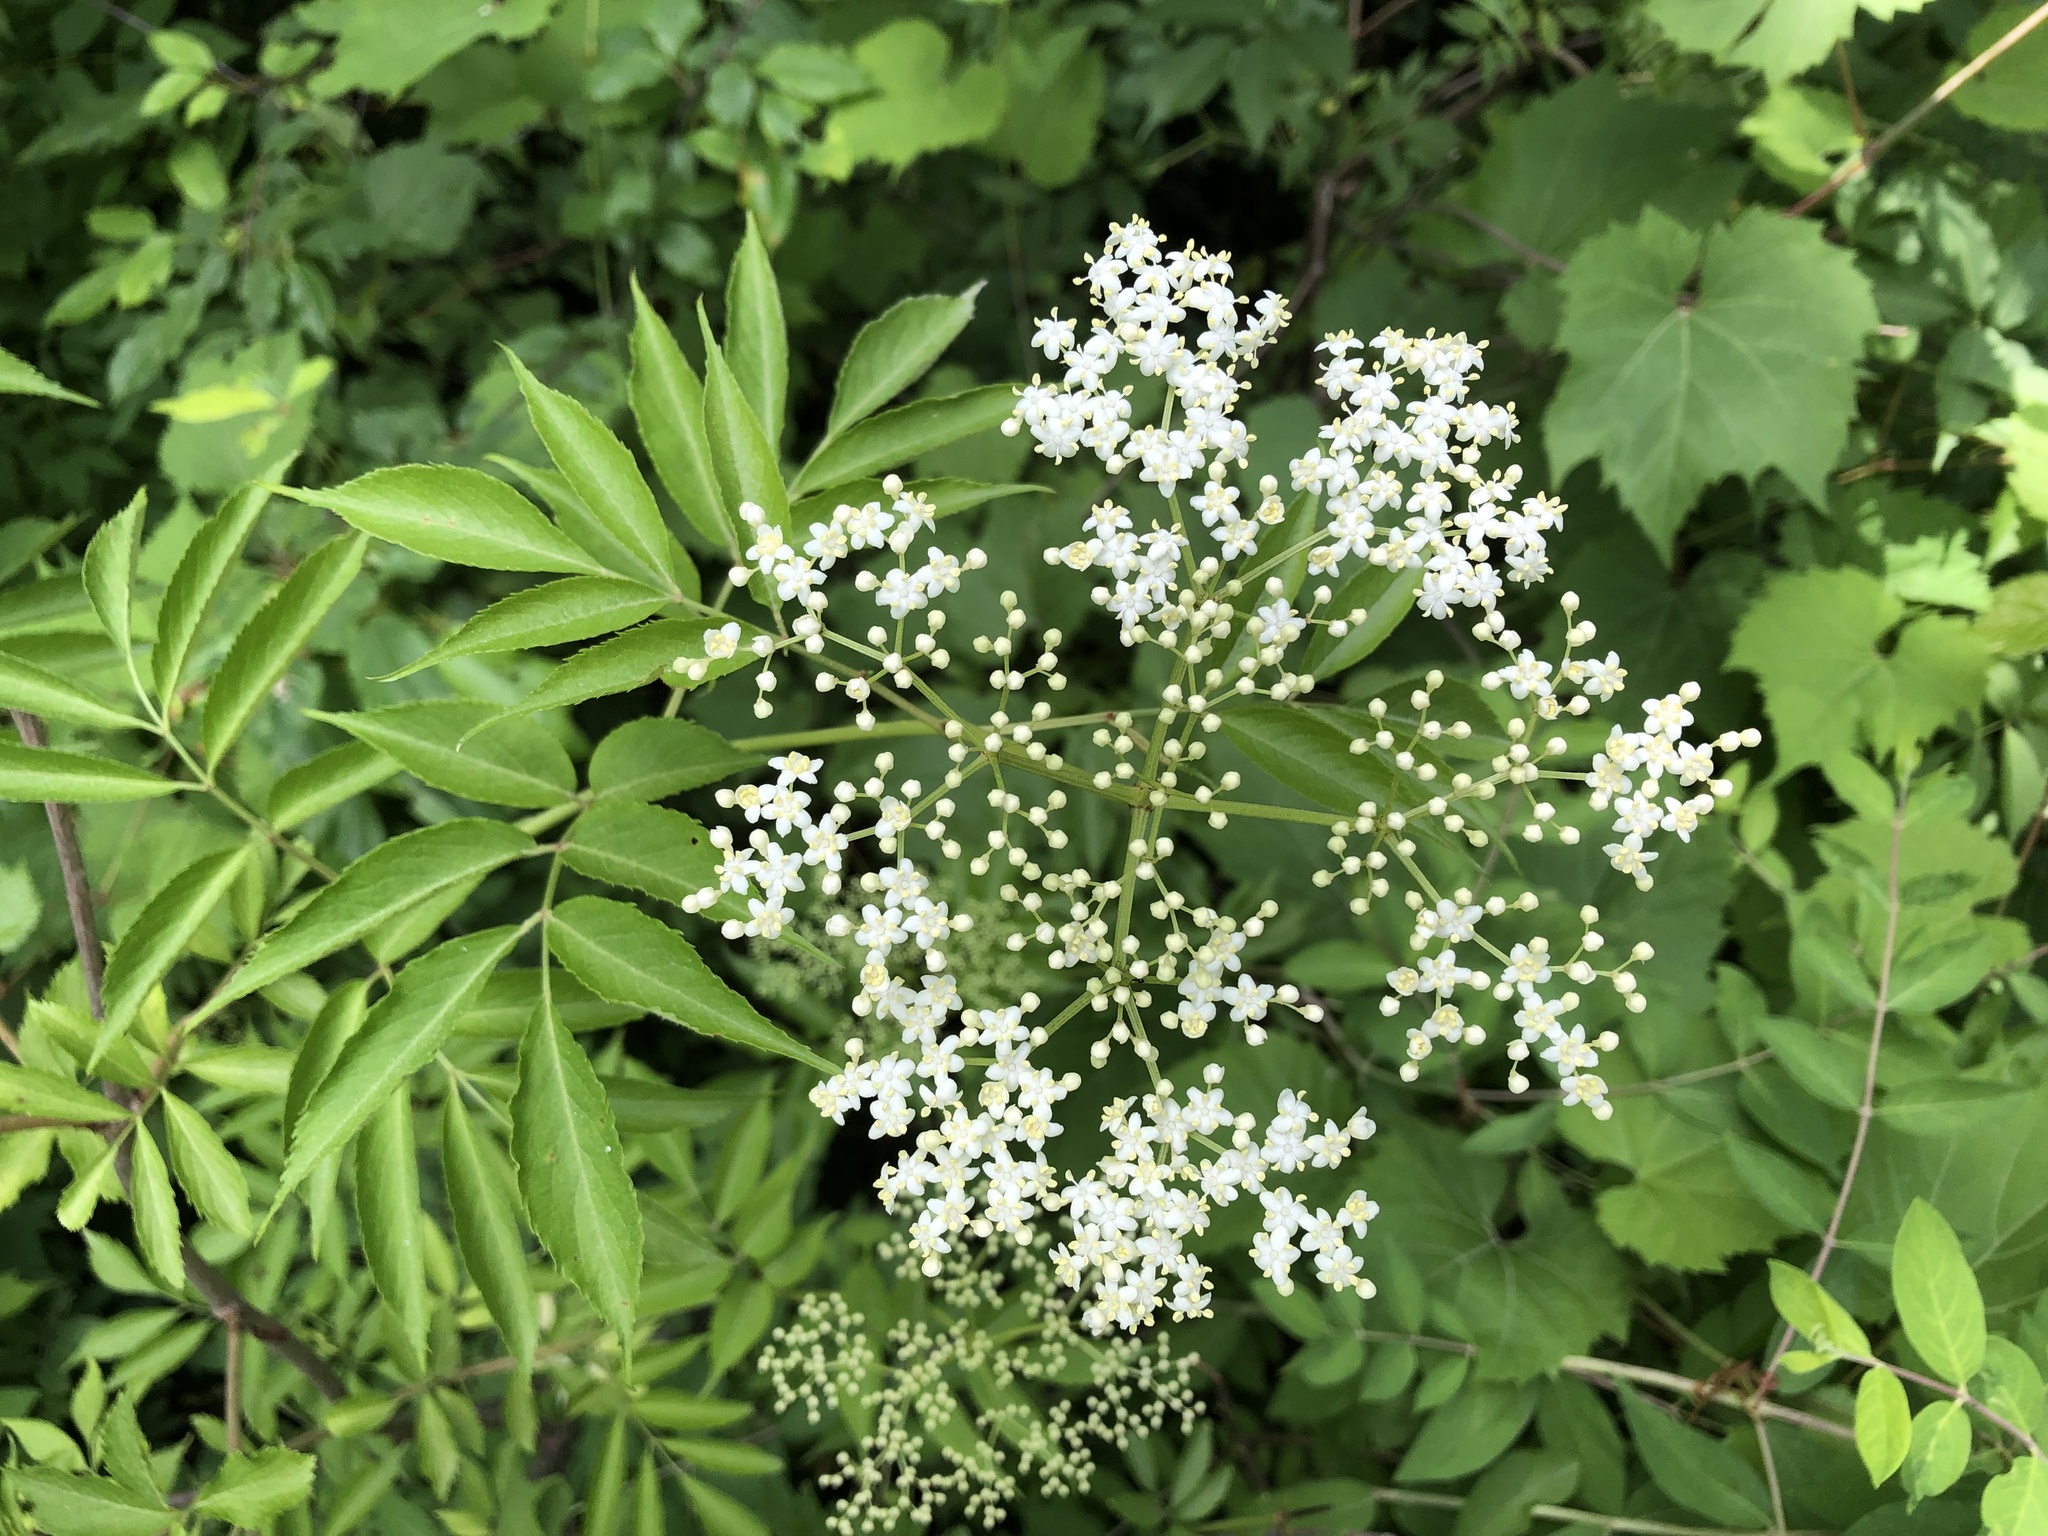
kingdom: Plantae
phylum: Tracheophyta
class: Magnoliopsida
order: Dipsacales
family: Viburnaceae
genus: Sambucus
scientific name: Sambucus canadensis
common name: American elder
